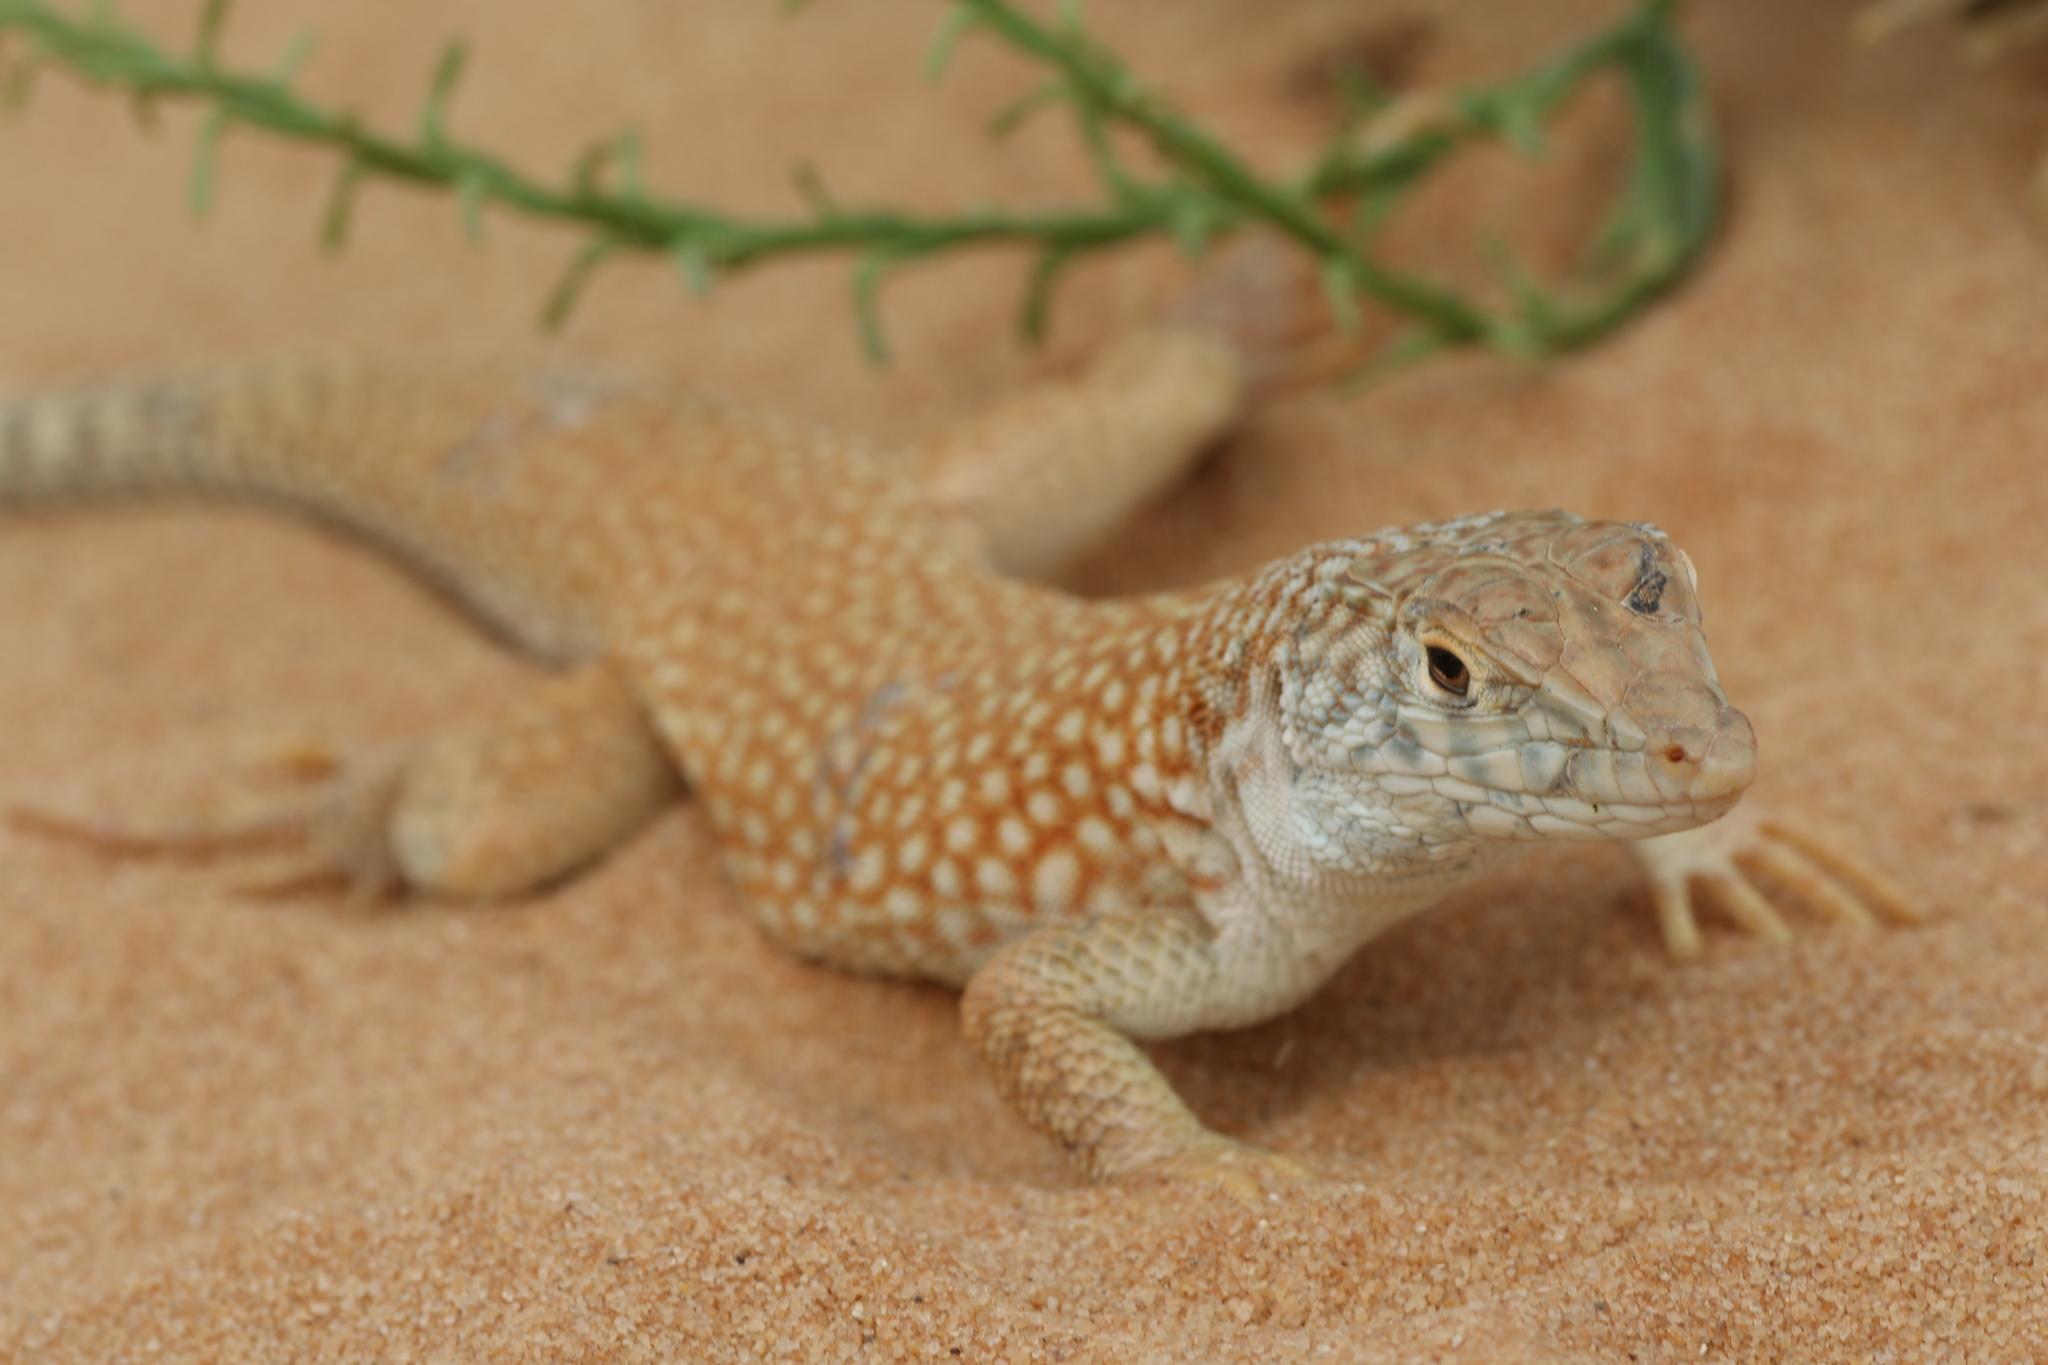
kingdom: Animalia
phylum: Chordata
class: Squamata
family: Lacertidae
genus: Acanthodactylus
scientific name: Acanthodactylus schmidti
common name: Schmidt's fringe-toed lizard
